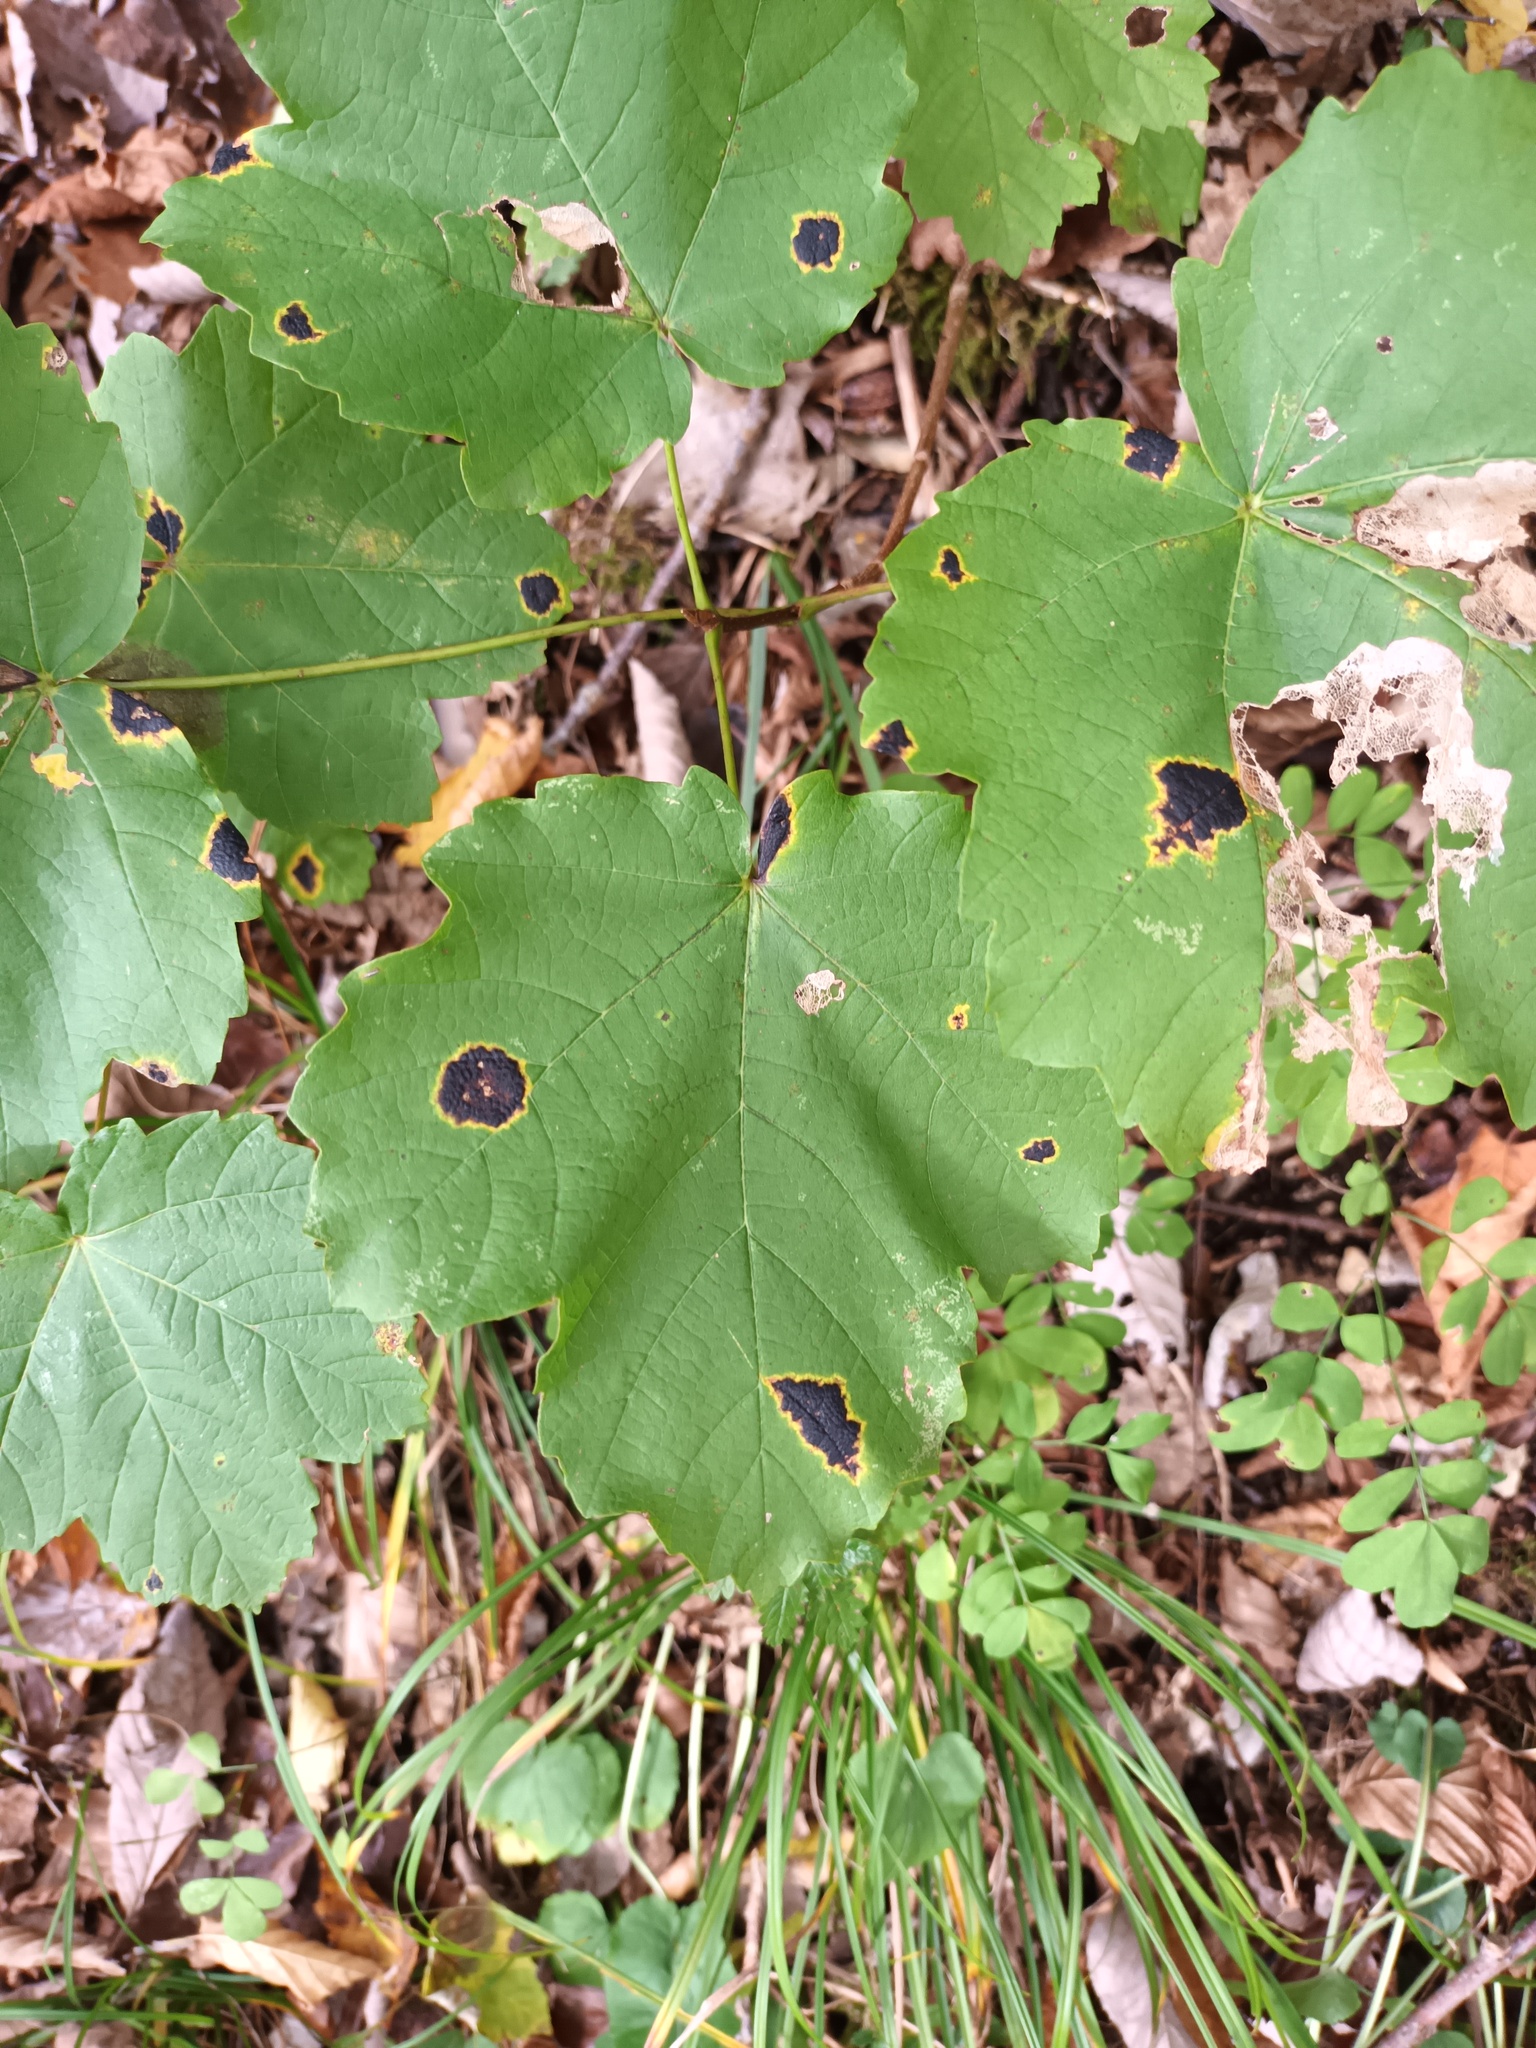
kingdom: Fungi
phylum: Ascomycota
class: Leotiomycetes
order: Rhytismatales
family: Rhytismataceae
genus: Rhytisma
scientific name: Rhytisma acerinum
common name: European tar spot
